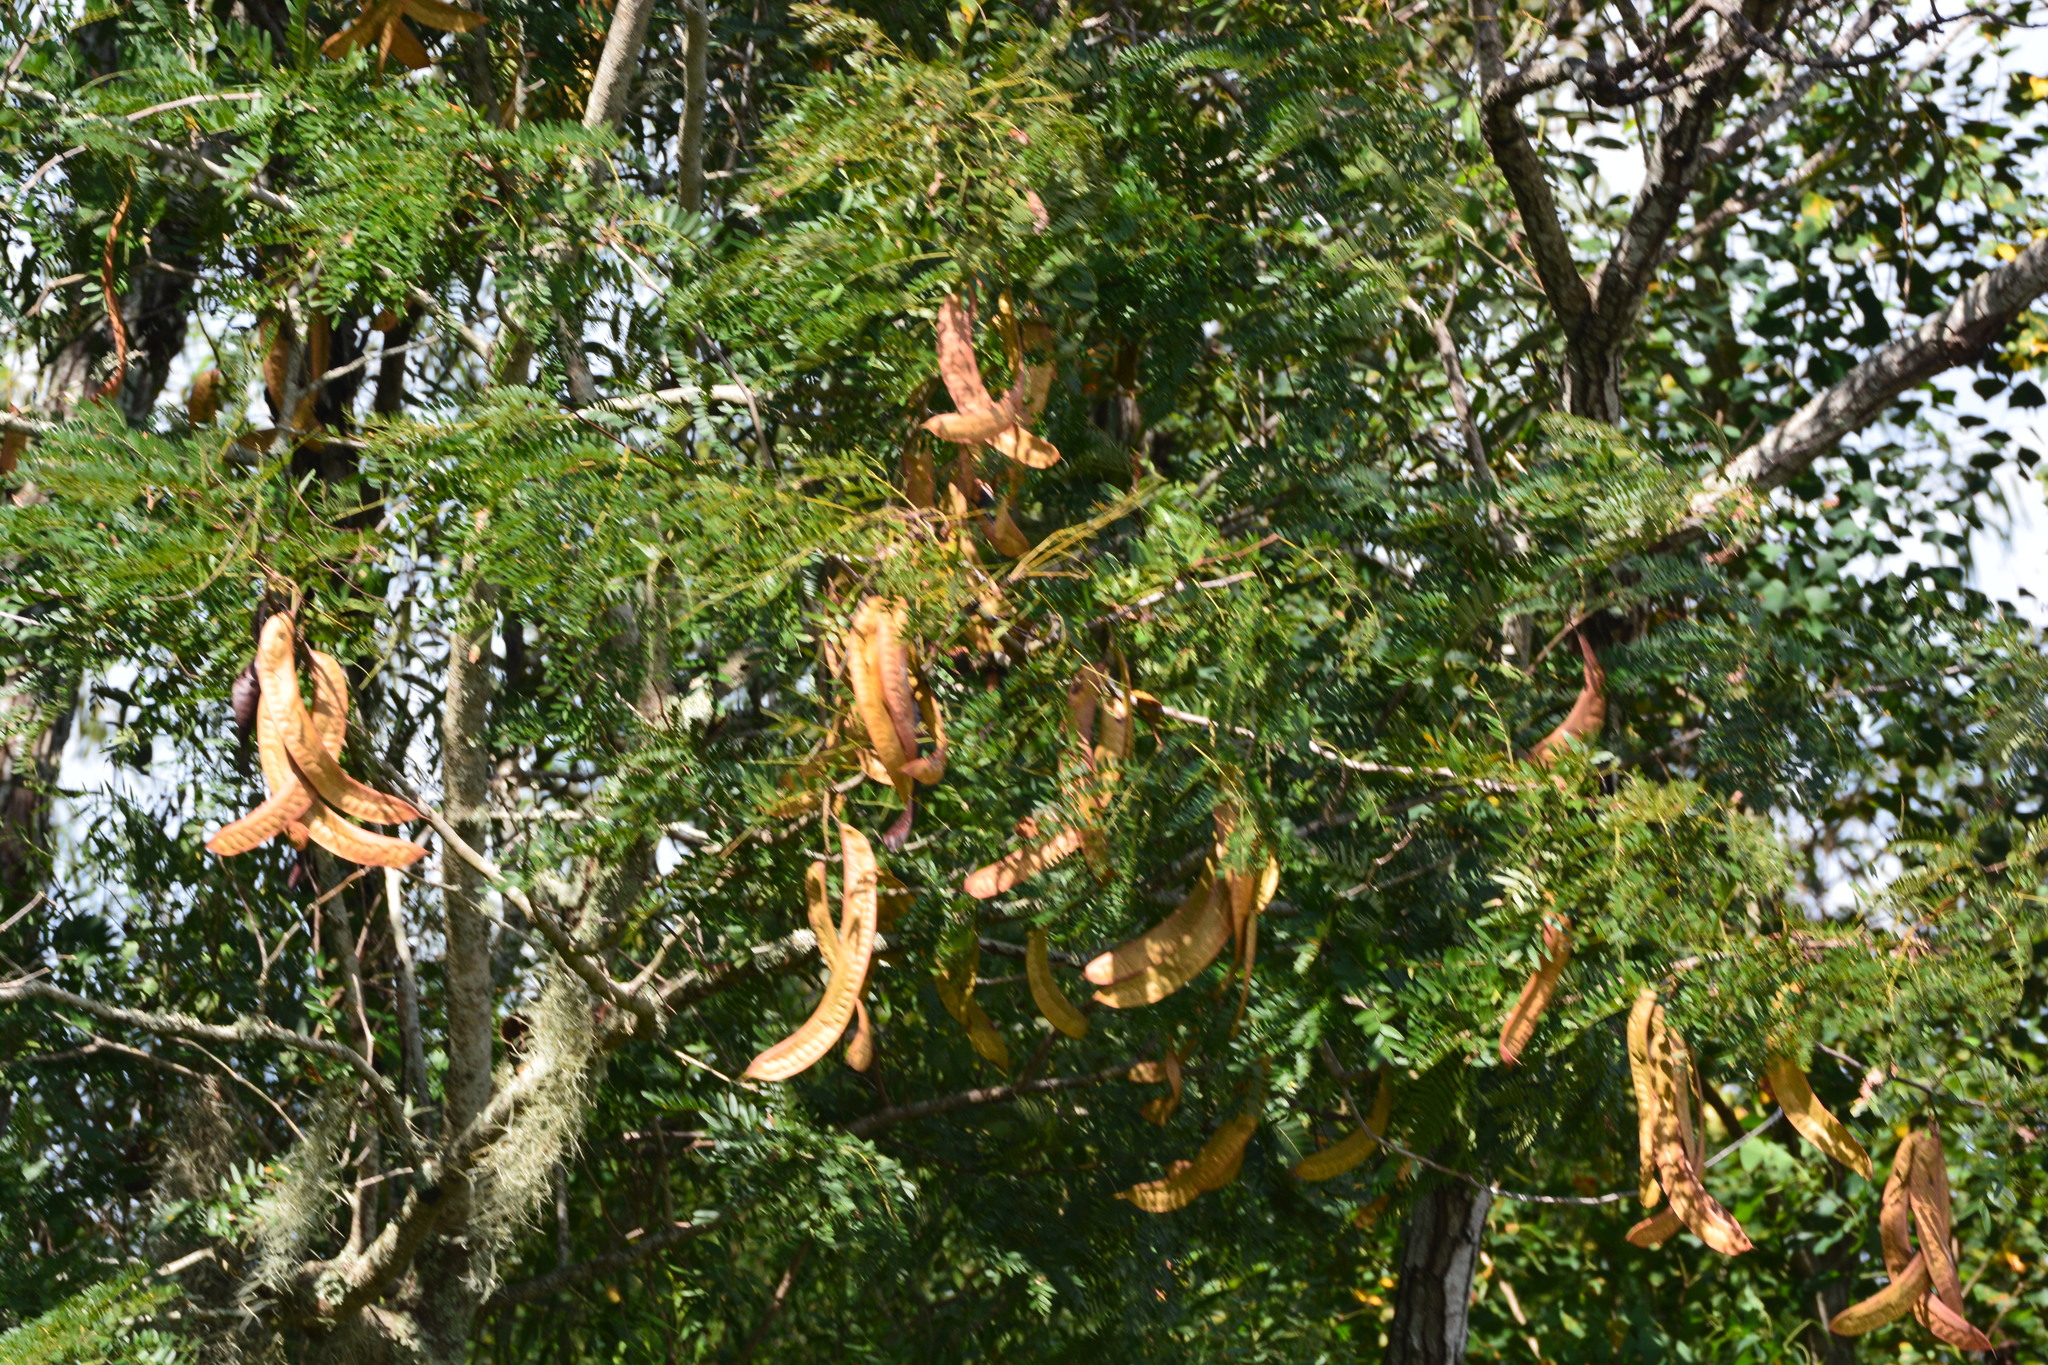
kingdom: Plantae
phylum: Tracheophyta
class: Magnoliopsida
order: Fabales
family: Fabaceae
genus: Gleditsia
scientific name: Gleditsia triacanthos
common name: Common honeylocust
